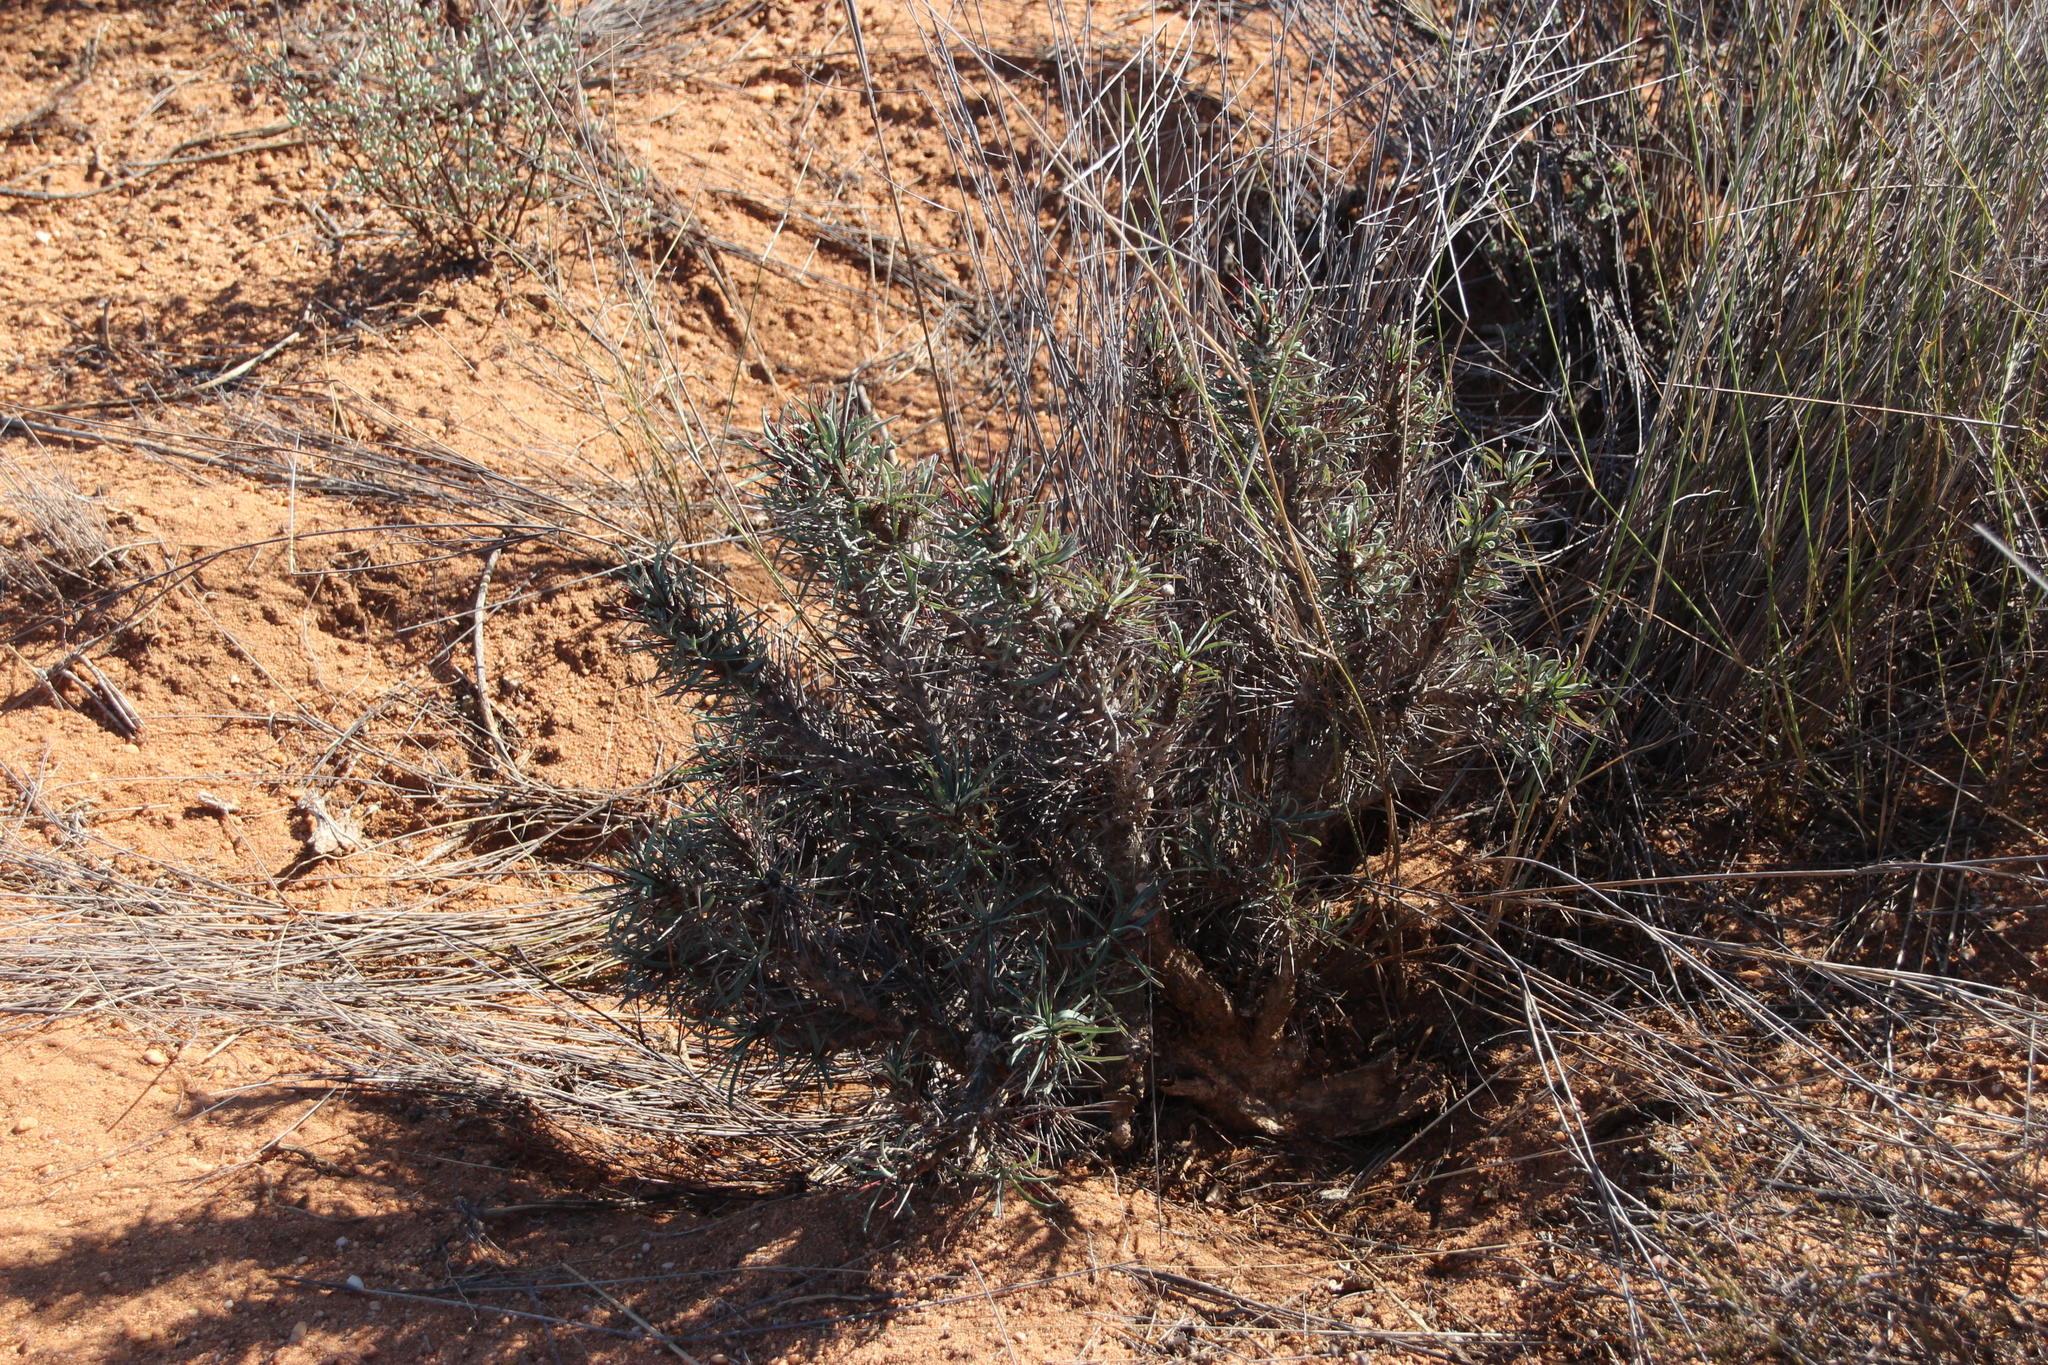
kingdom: Plantae
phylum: Tracheophyta
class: Magnoliopsida
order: Malpighiales
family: Euphorbiaceae
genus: Euphorbia
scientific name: Euphorbia loricata
